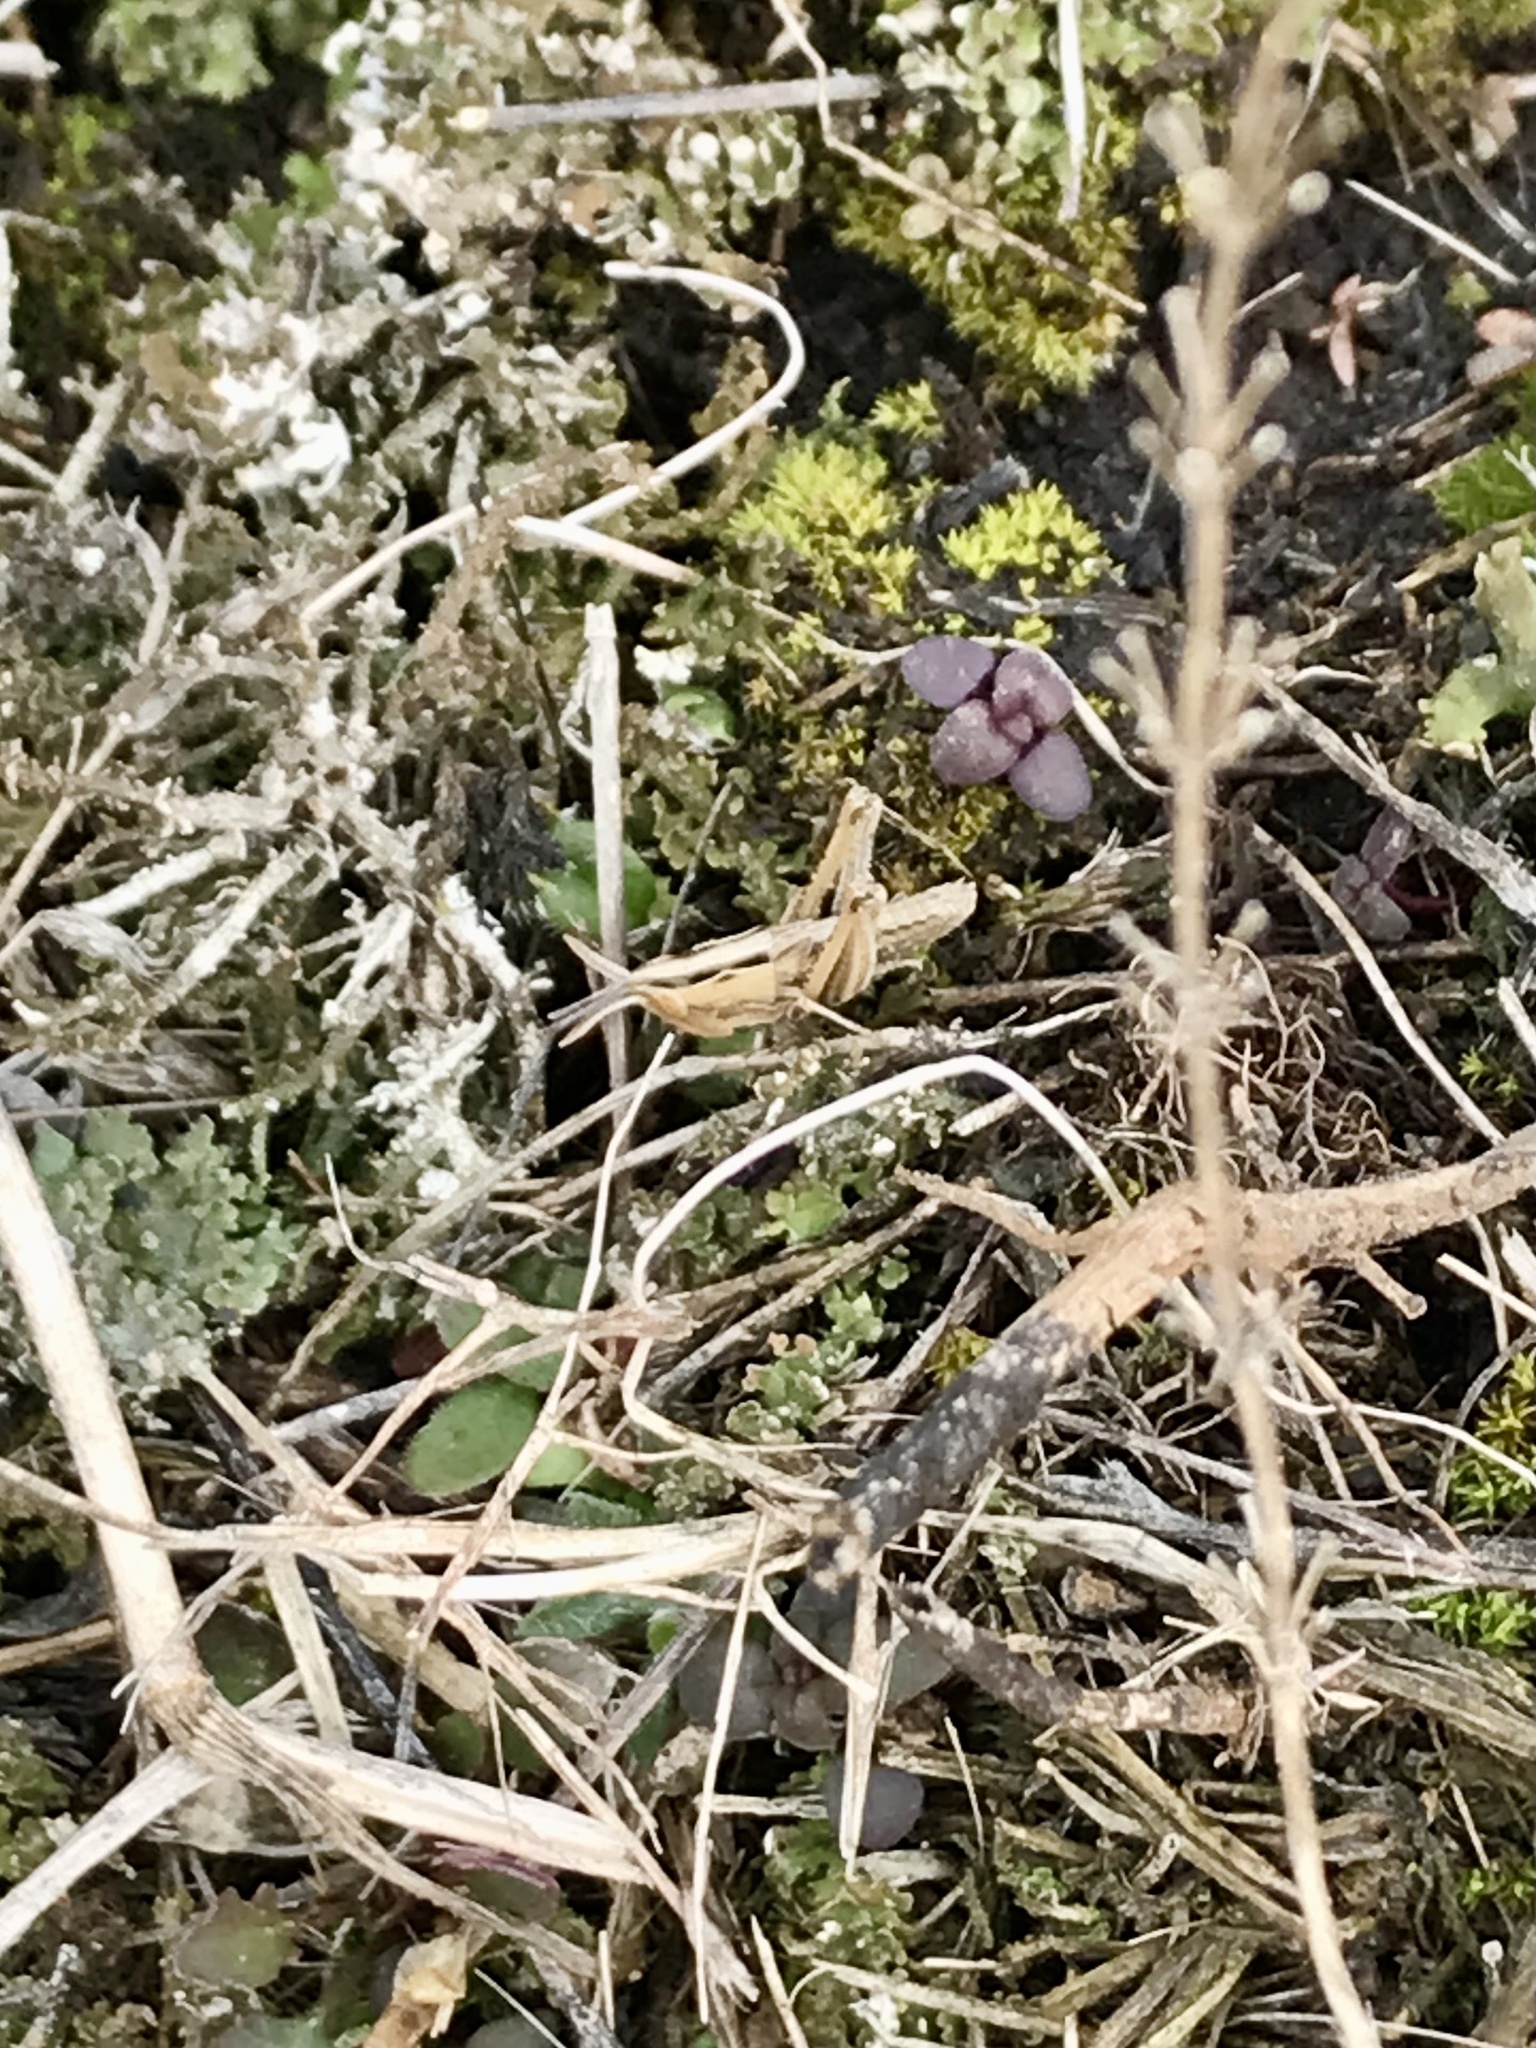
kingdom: Animalia
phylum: Arthropoda
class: Insecta
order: Orthoptera
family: Acrididae
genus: Eritettix
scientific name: Eritettix simplex
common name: Velvet-striped grasshopper
